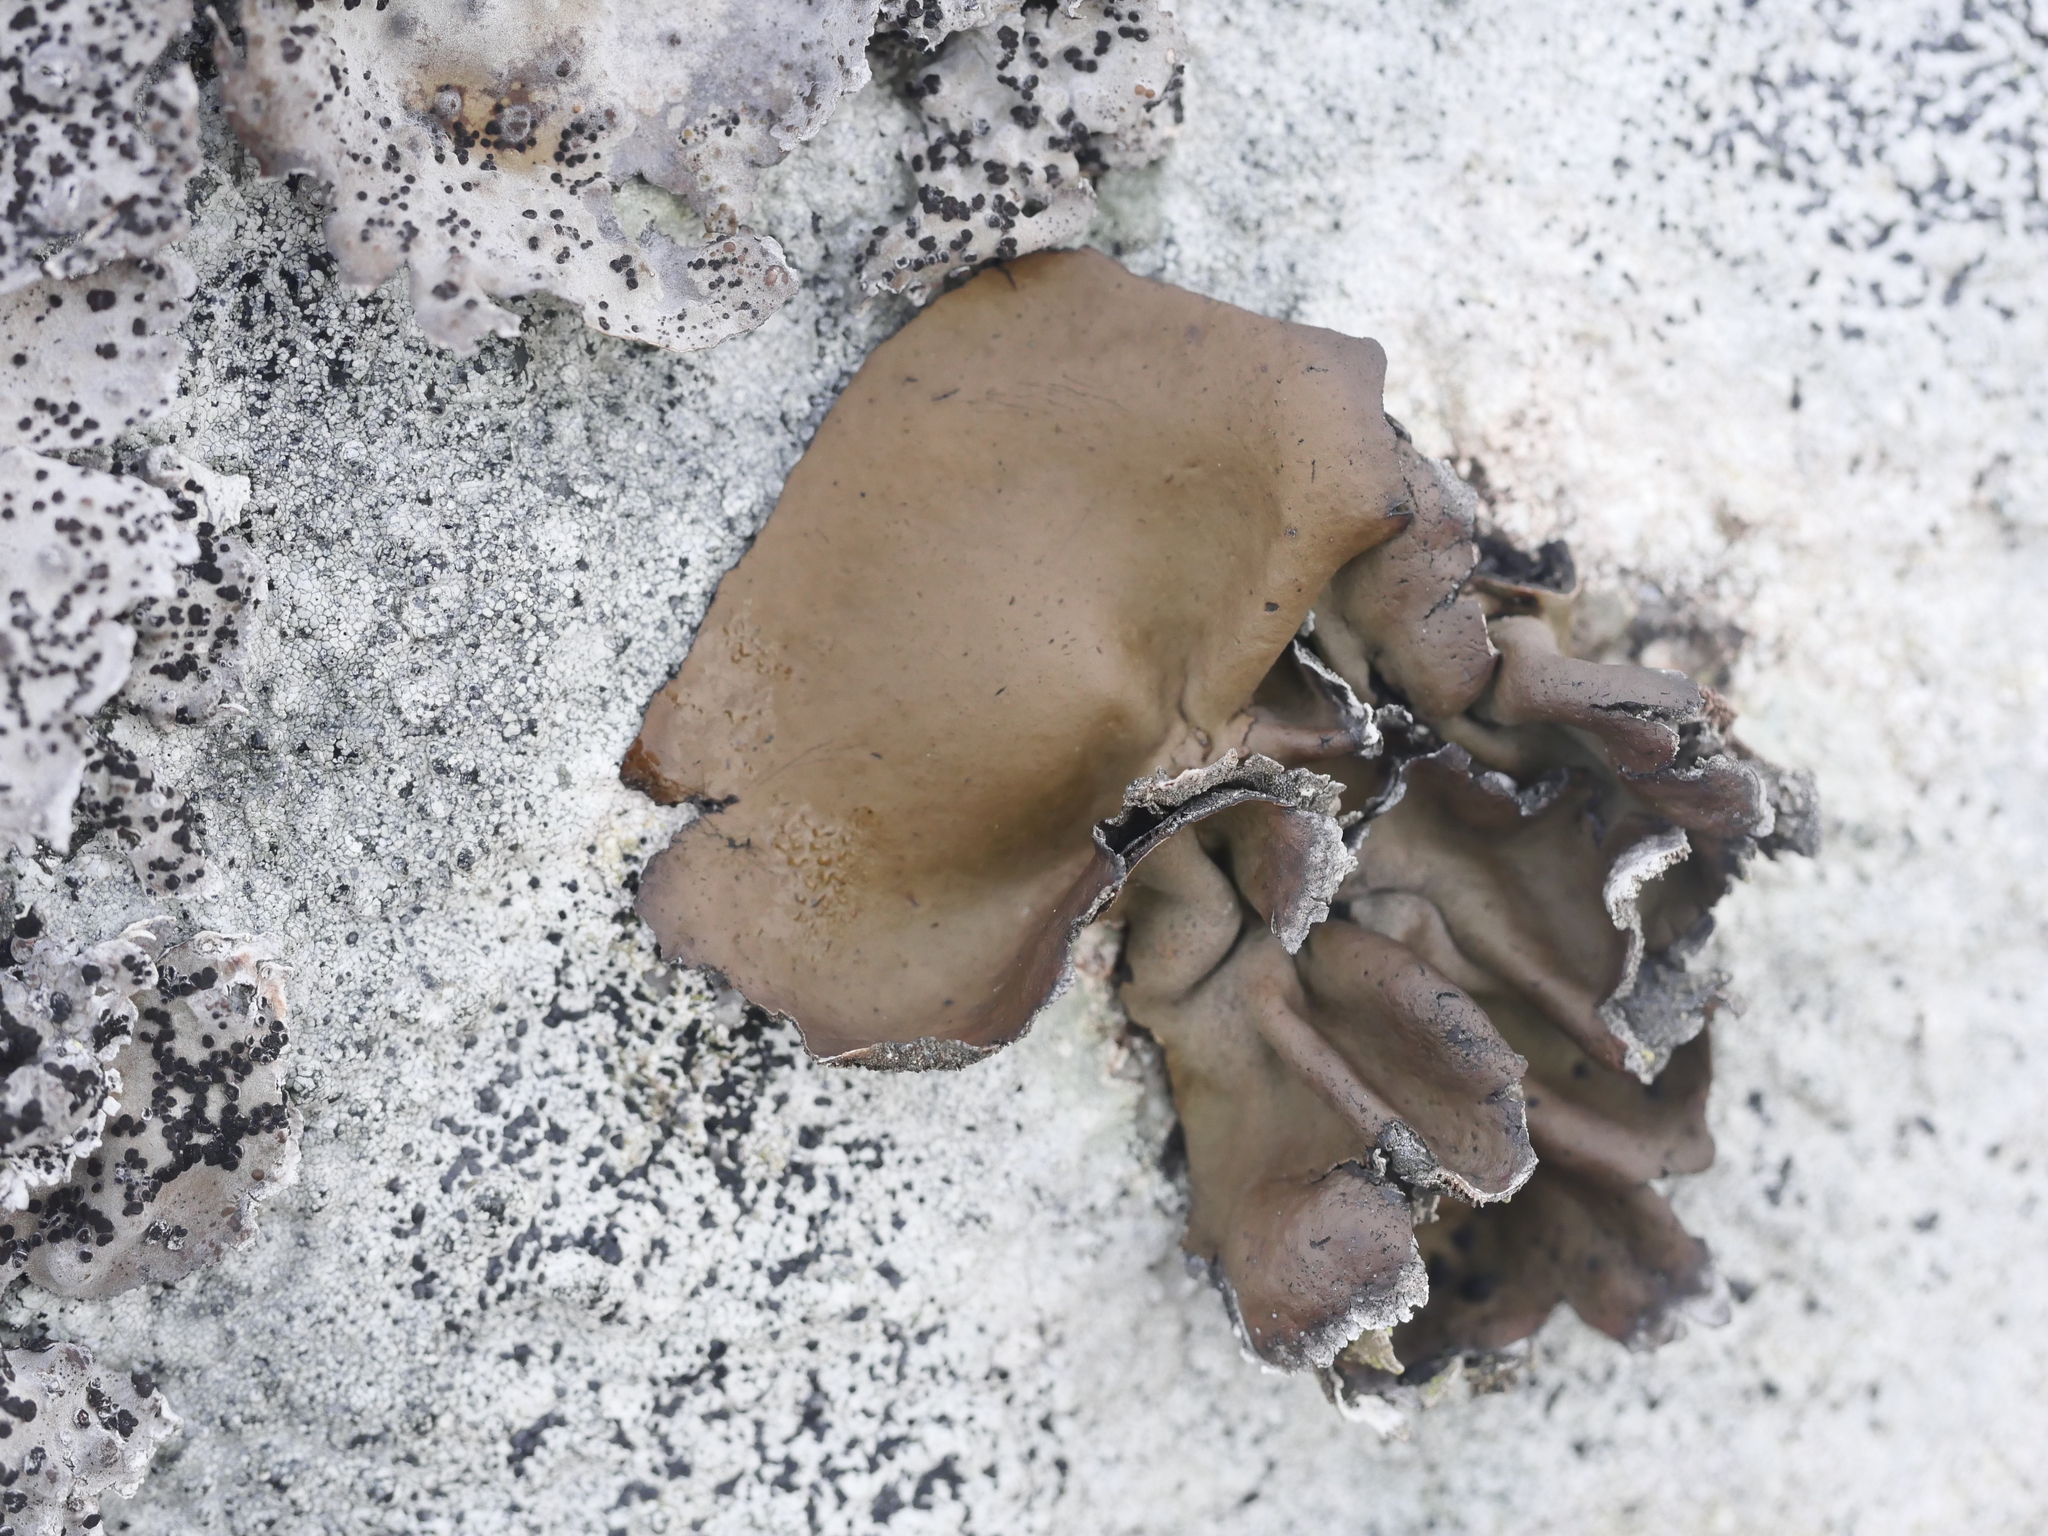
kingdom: Fungi
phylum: Ascomycota
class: Lecanoromycetes
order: Umbilicariales
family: Umbilicariaceae
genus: Umbilicaria
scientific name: Umbilicaria muhlenbergii
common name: Lesser rocktripe
